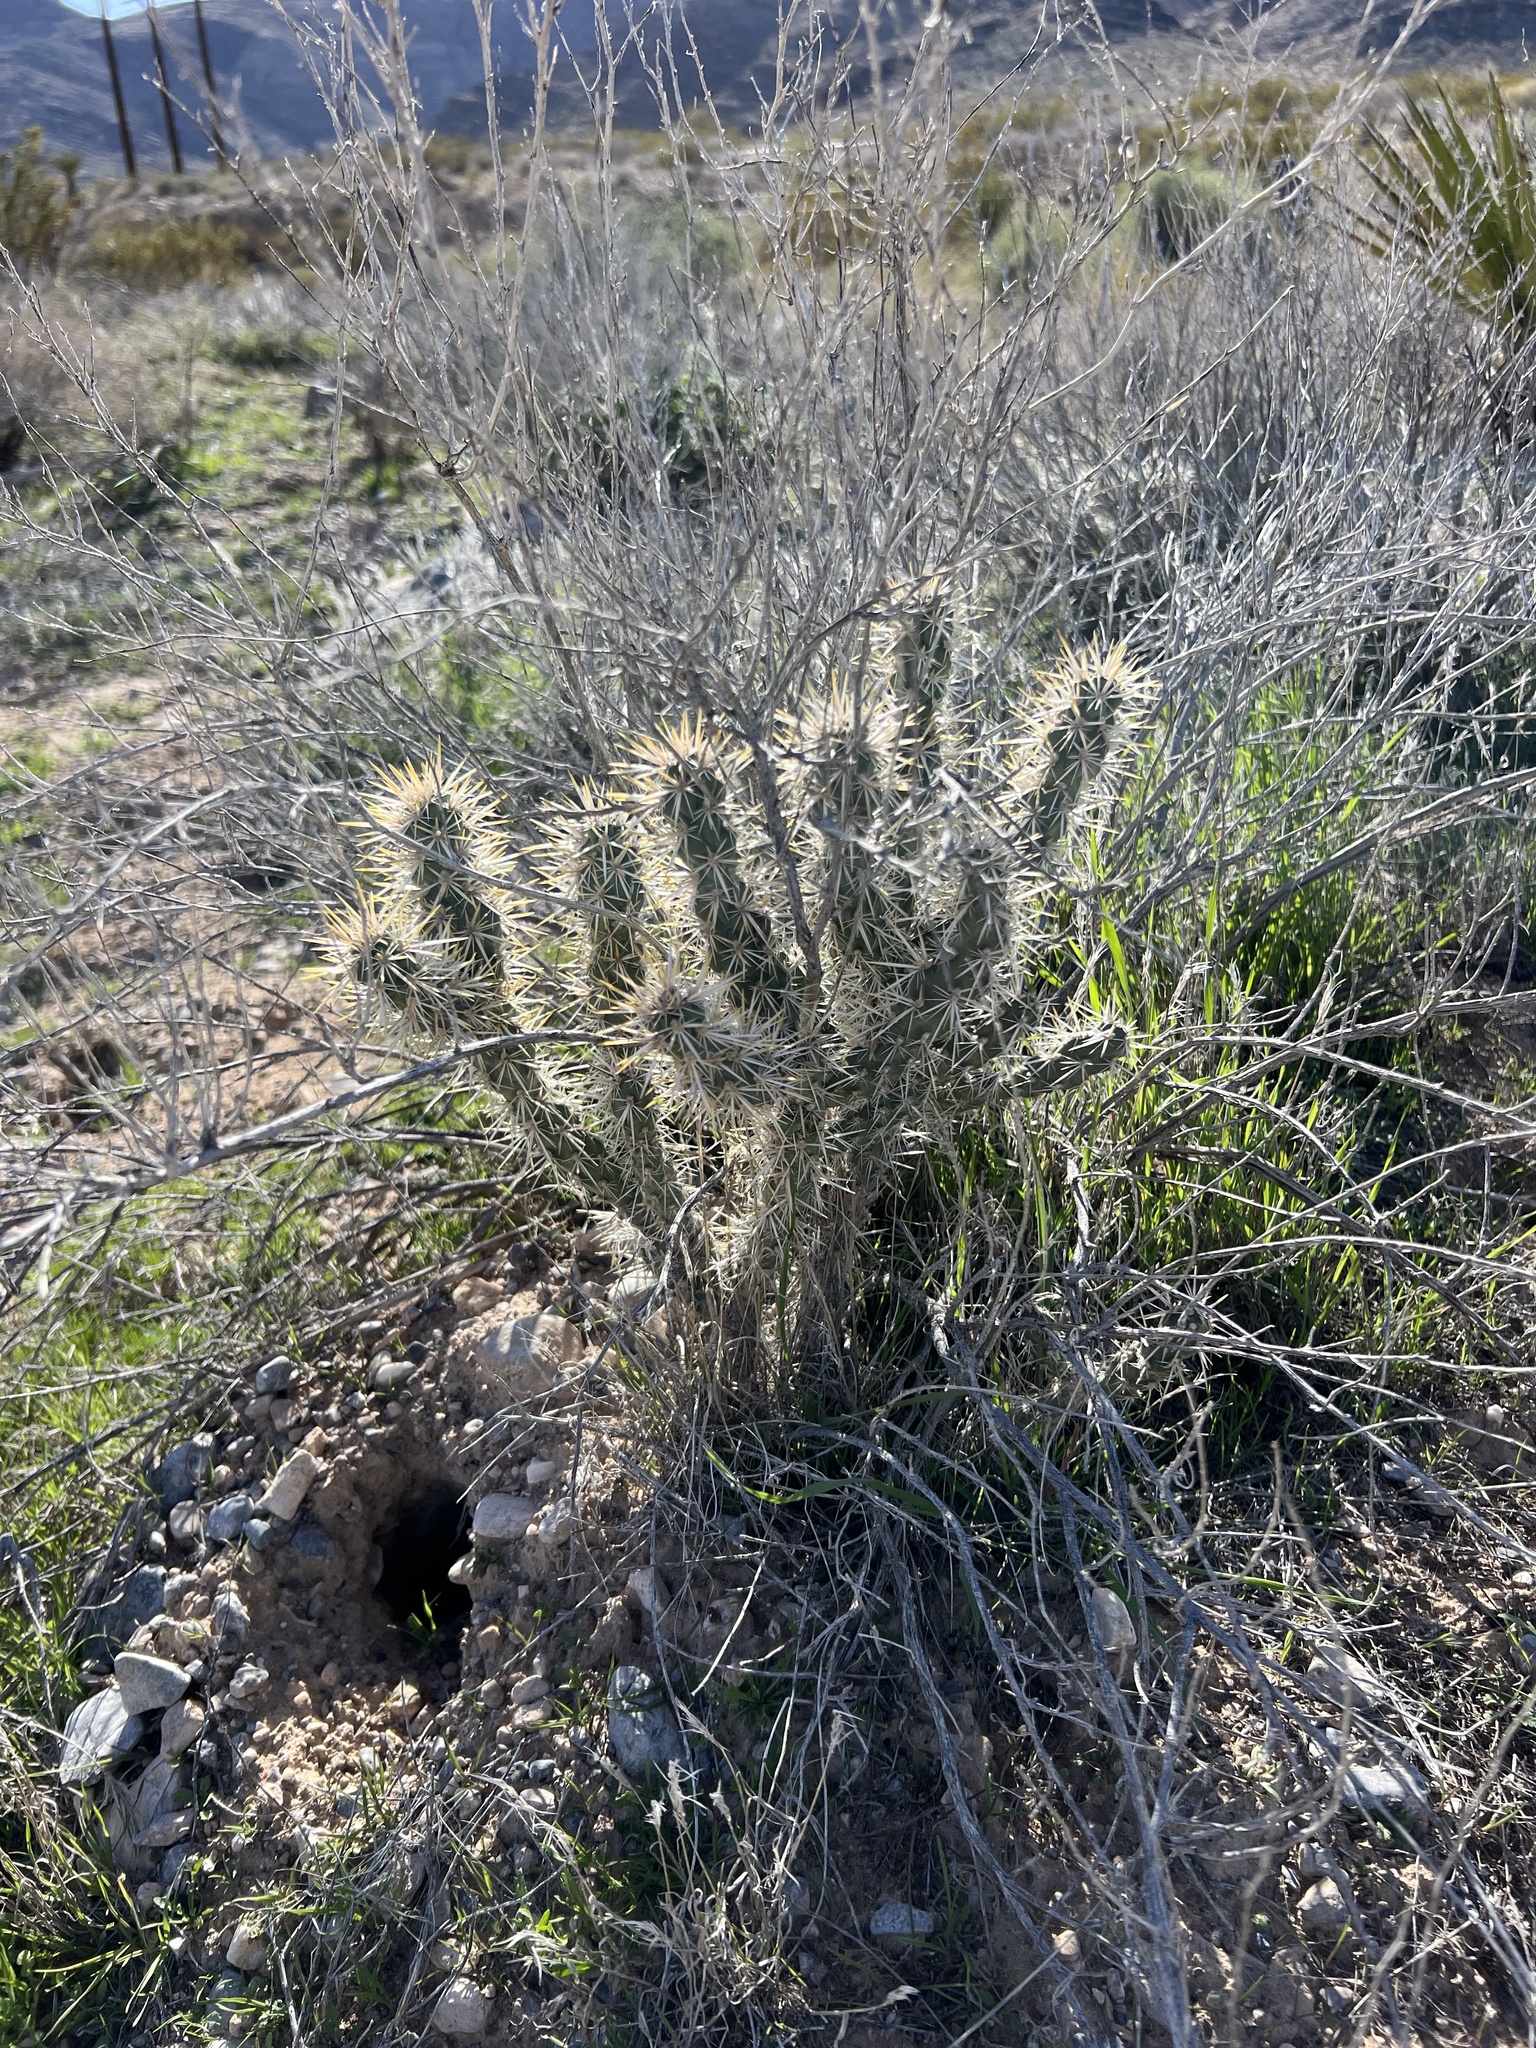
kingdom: Plantae
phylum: Tracheophyta
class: Magnoliopsida
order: Caryophyllales
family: Cactaceae
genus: Cylindropuntia
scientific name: Cylindropuntia echinocarpa
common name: Ground cholla
